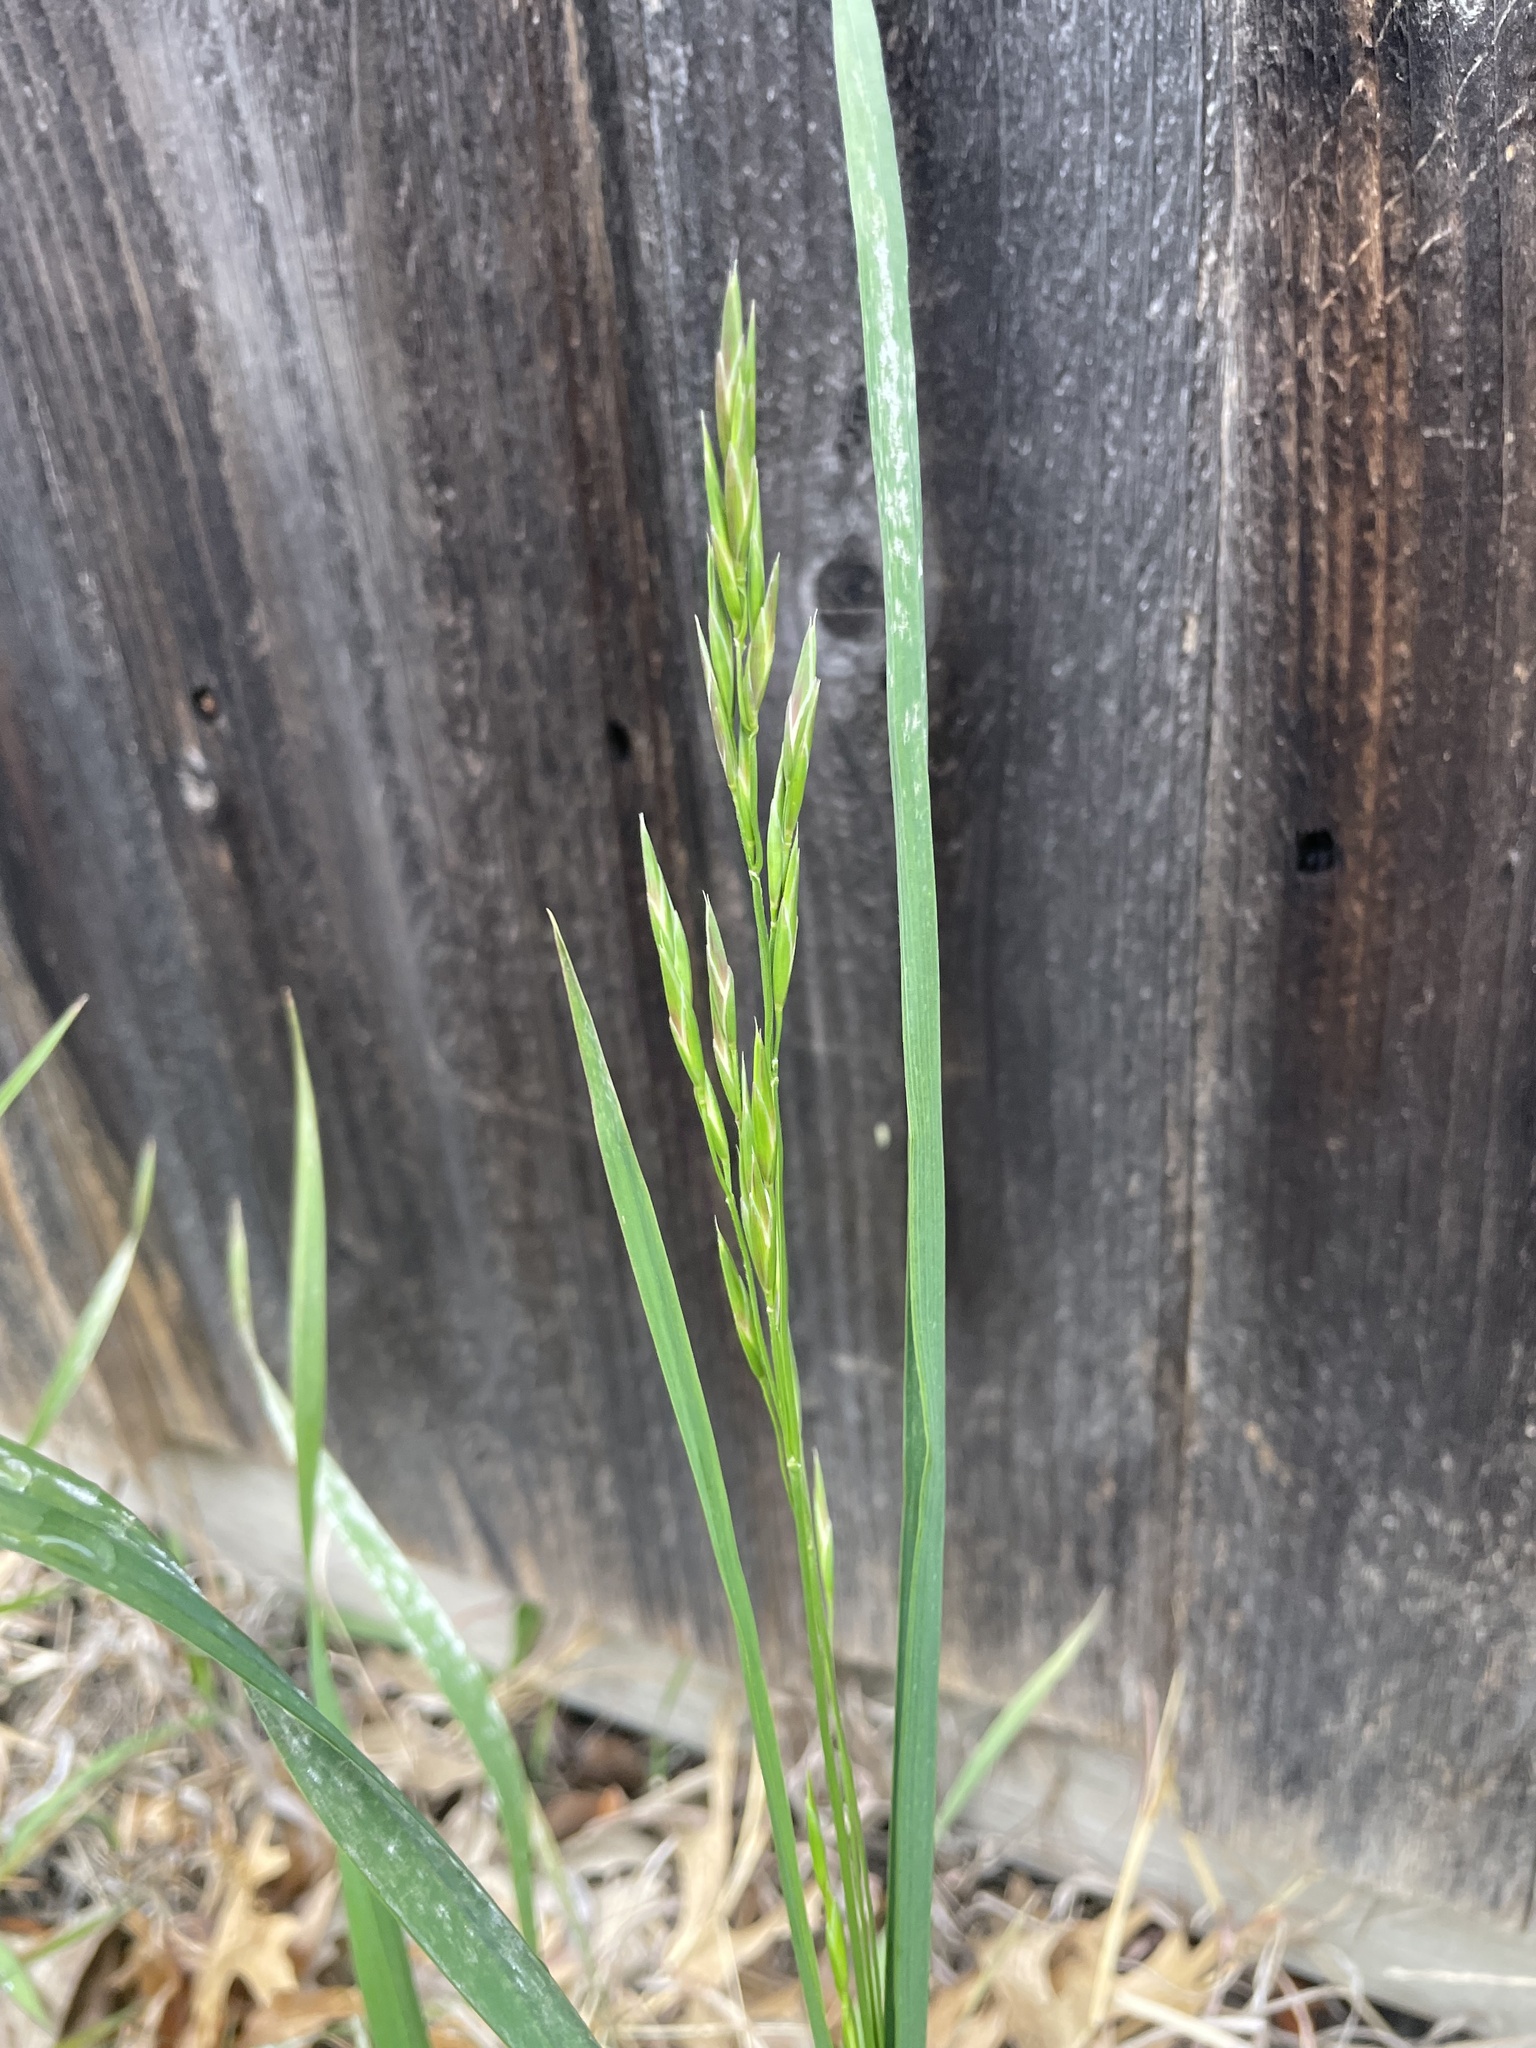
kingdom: Plantae
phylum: Tracheophyta
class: Liliopsida
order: Poales
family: Poaceae
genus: Lolium
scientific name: Lolium arundinaceum
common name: Reed fescue
